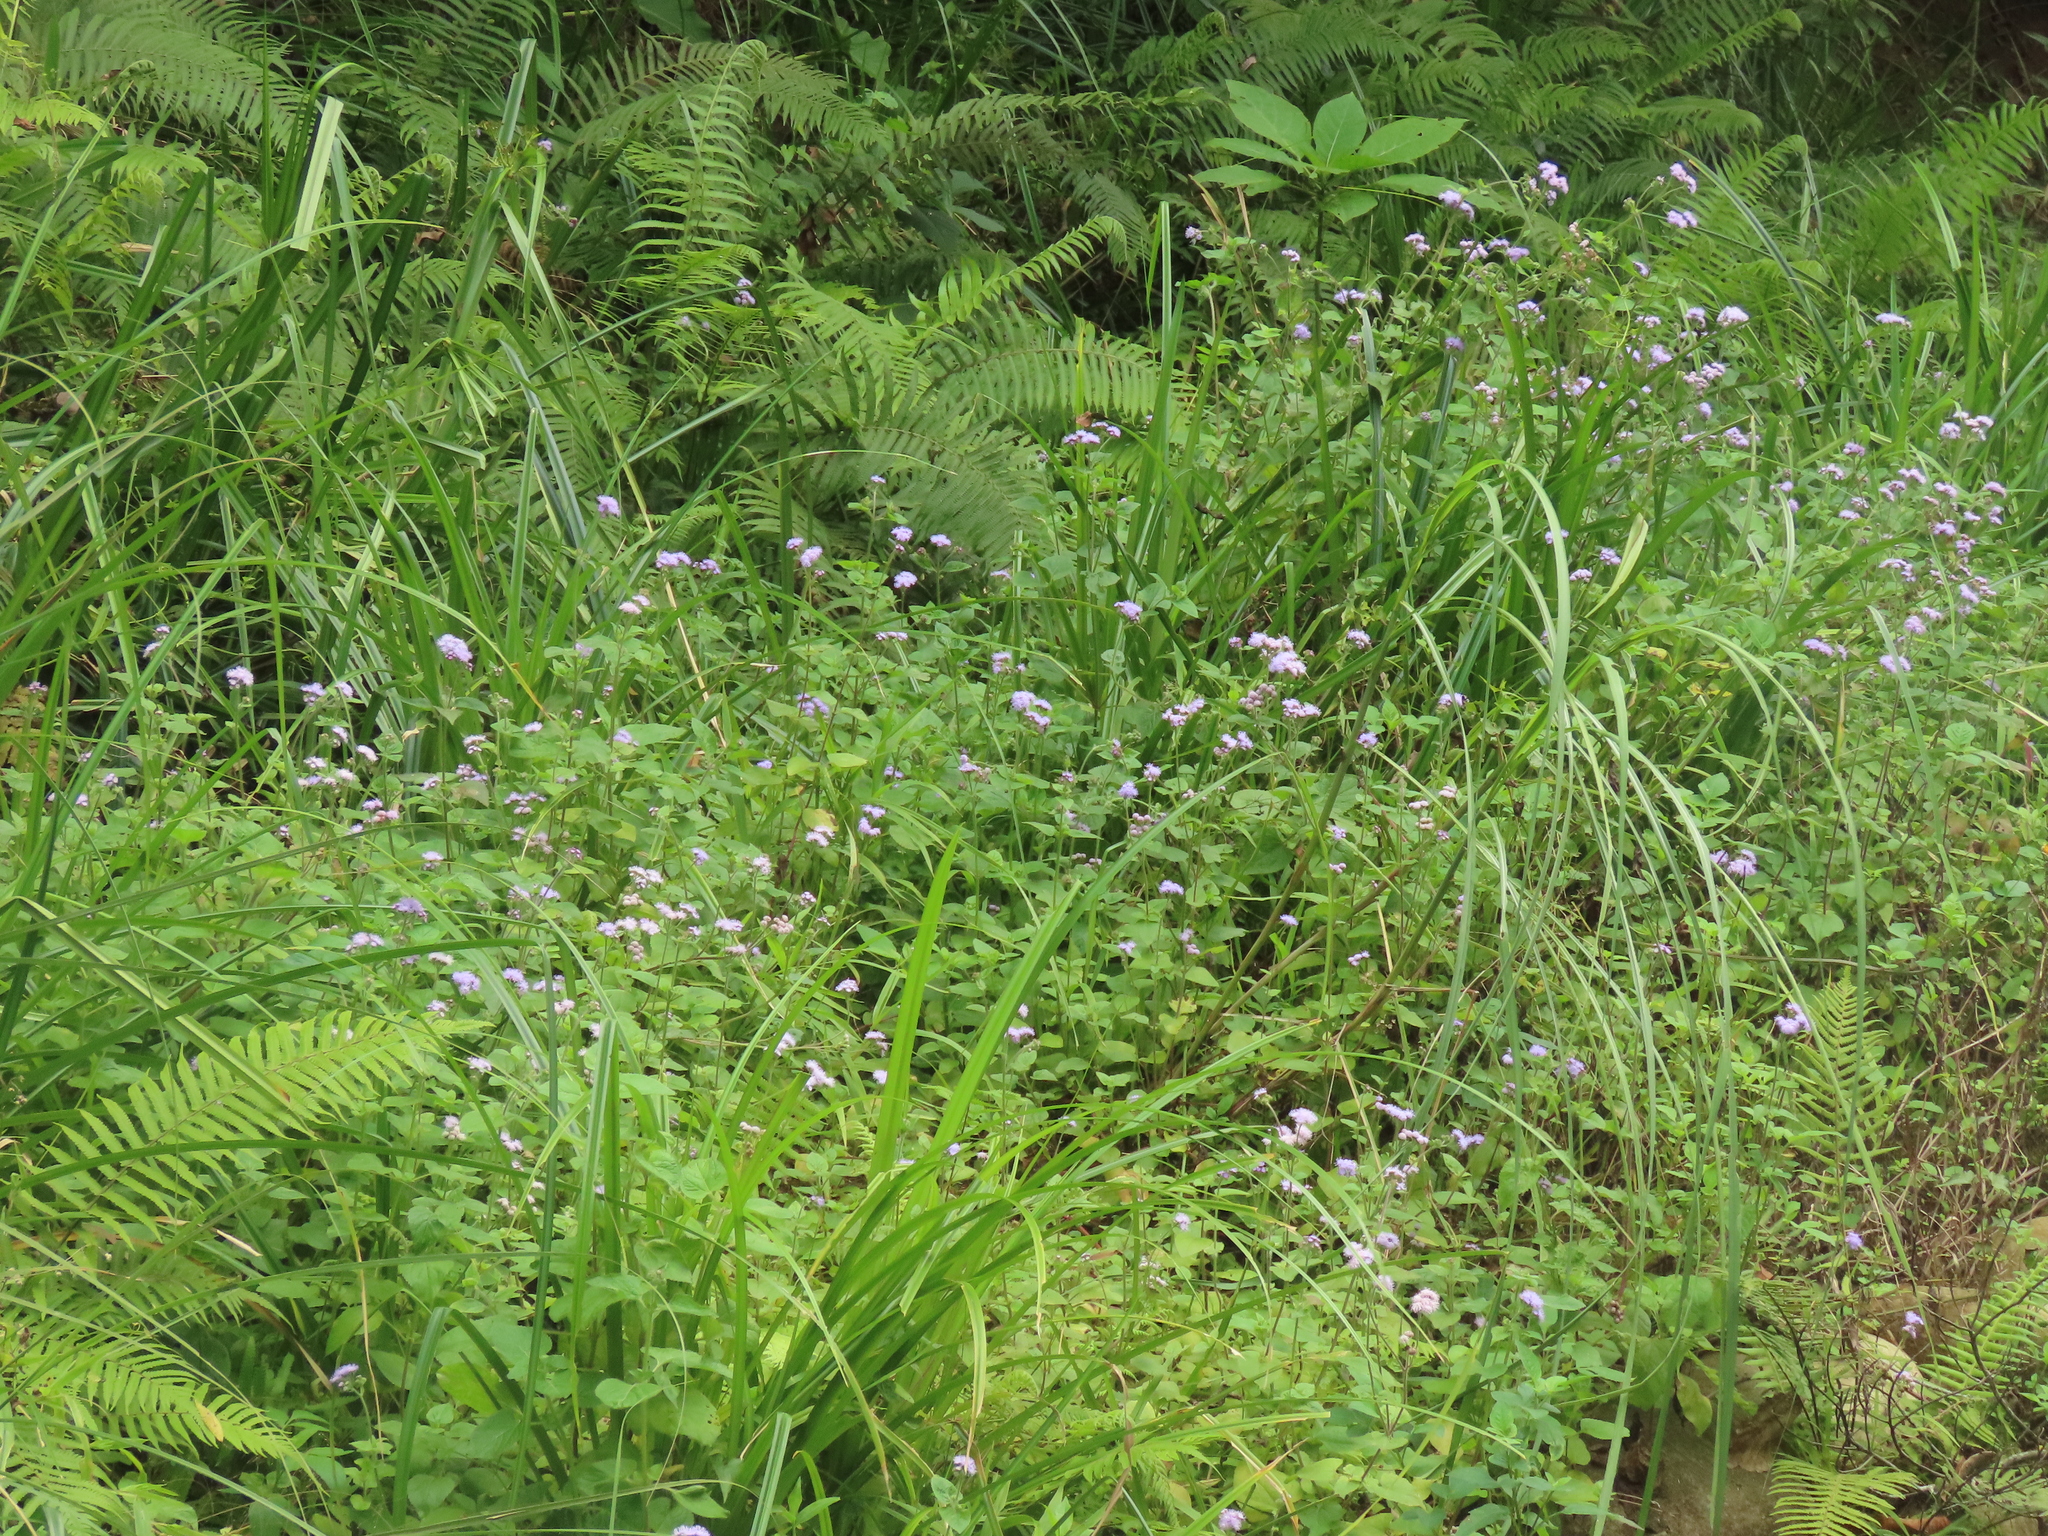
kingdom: Plantae
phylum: Tracheophyta
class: Liliopsida
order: Poales
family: Cyperaceae
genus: Scirpus
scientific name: Scirpus ternatanus
